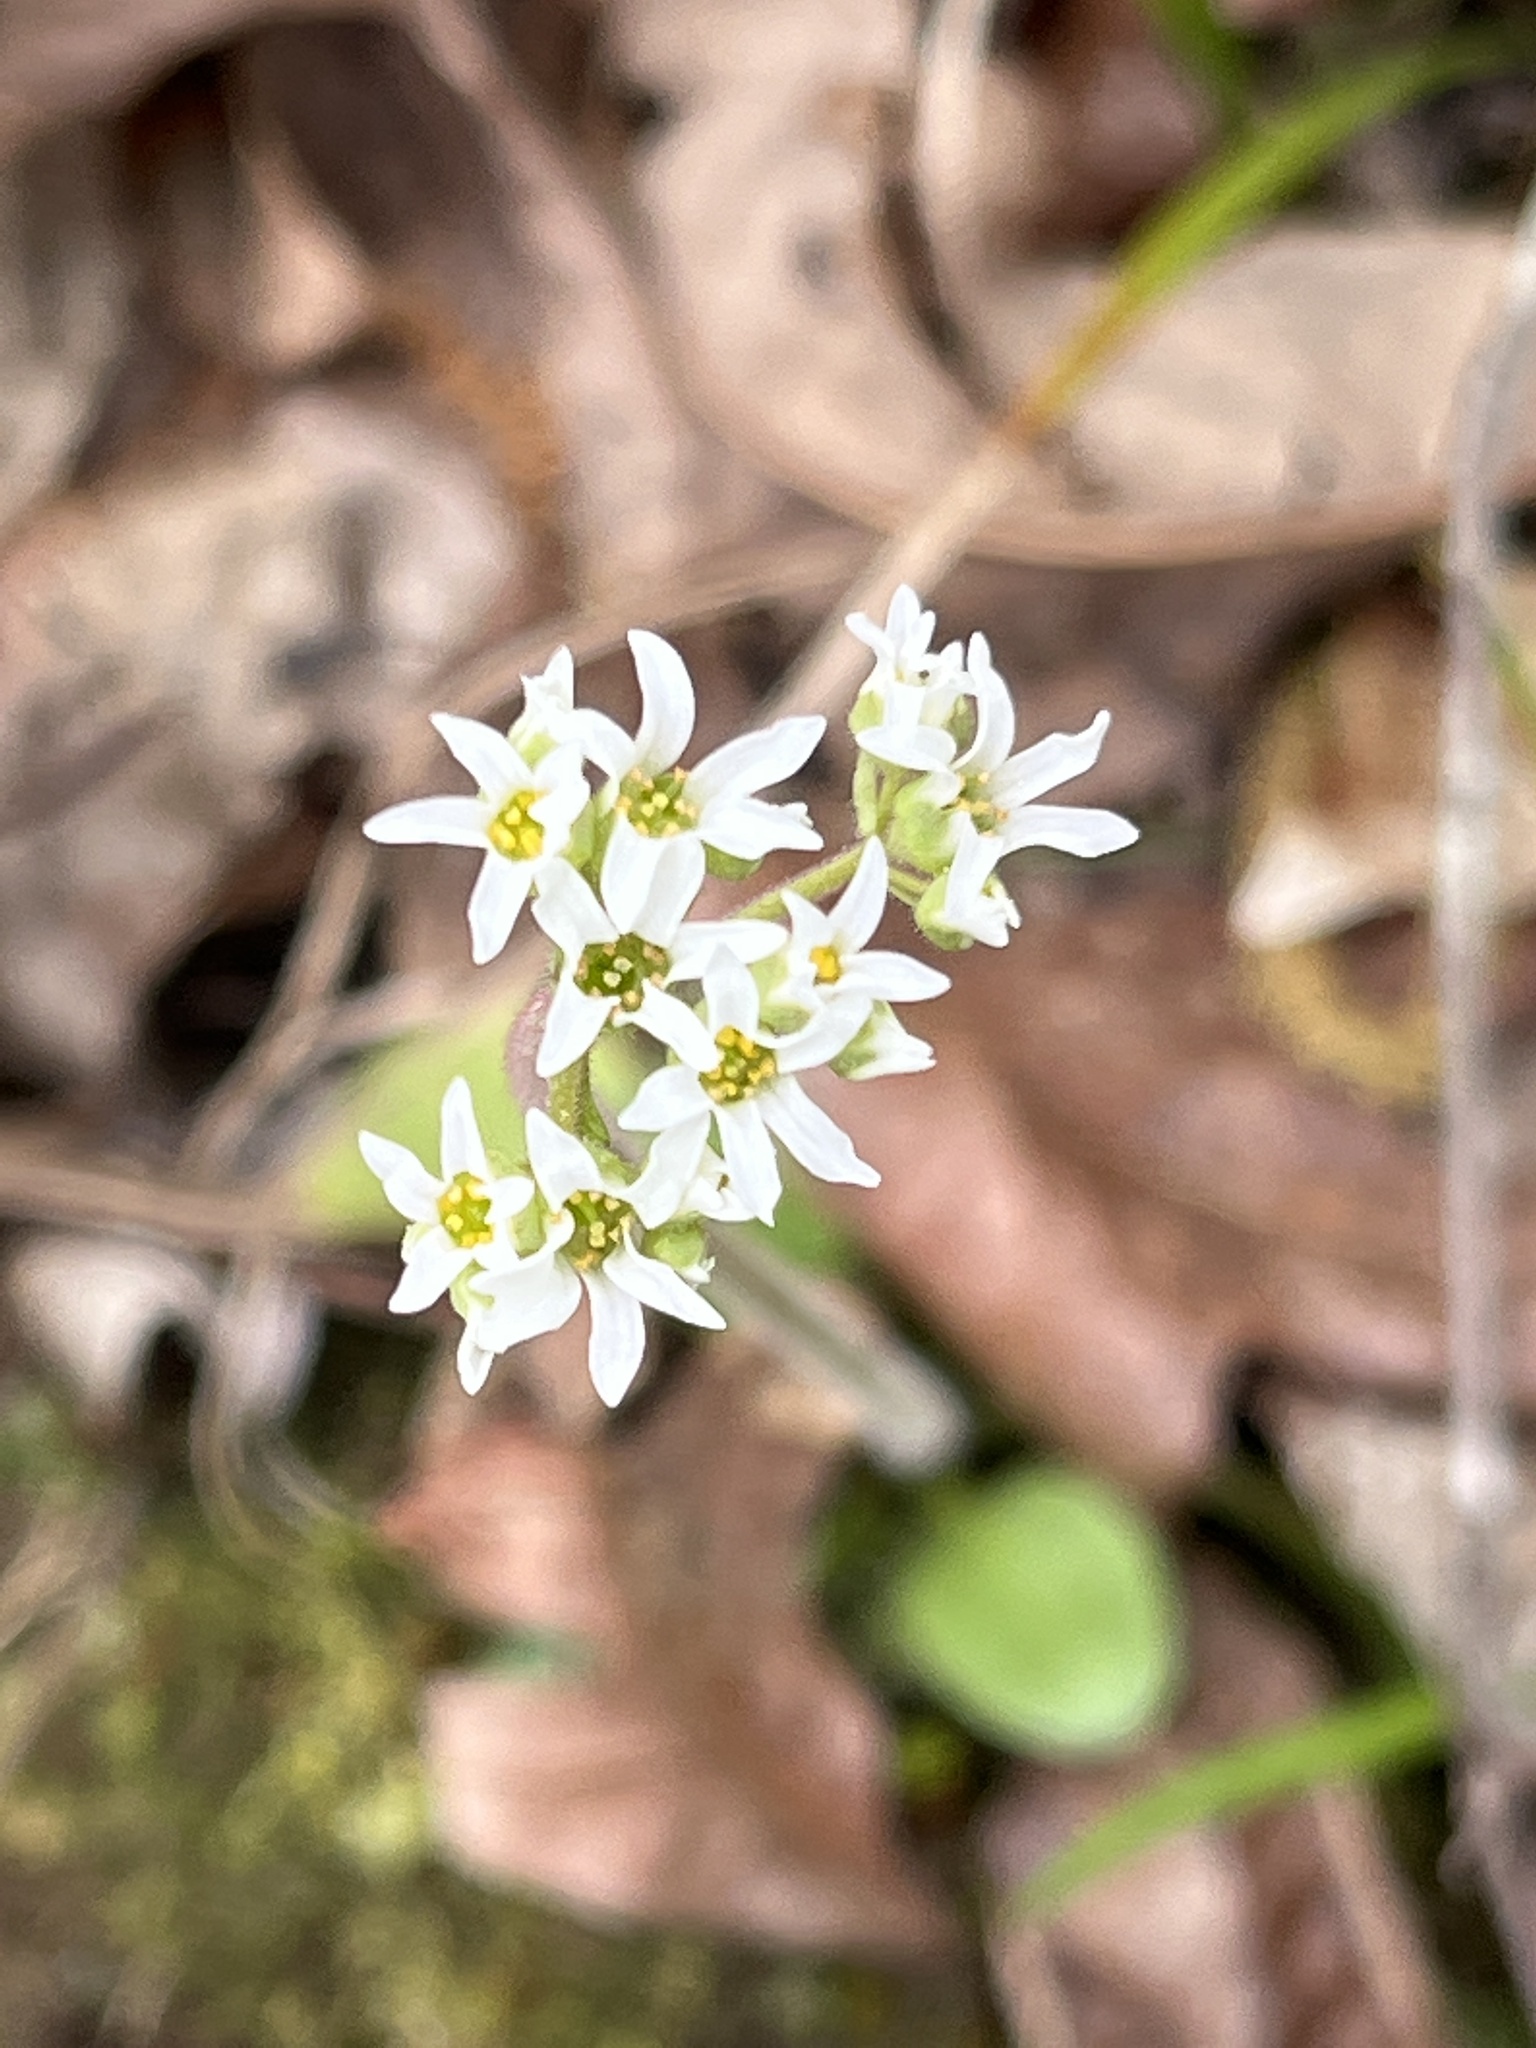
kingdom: Plantae
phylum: Tracheophyta
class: Magnoliopsida
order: Saxifragales
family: Saxifragaceae
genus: Micranthes
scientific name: Micranthes virginiensis
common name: Early saxifrage
